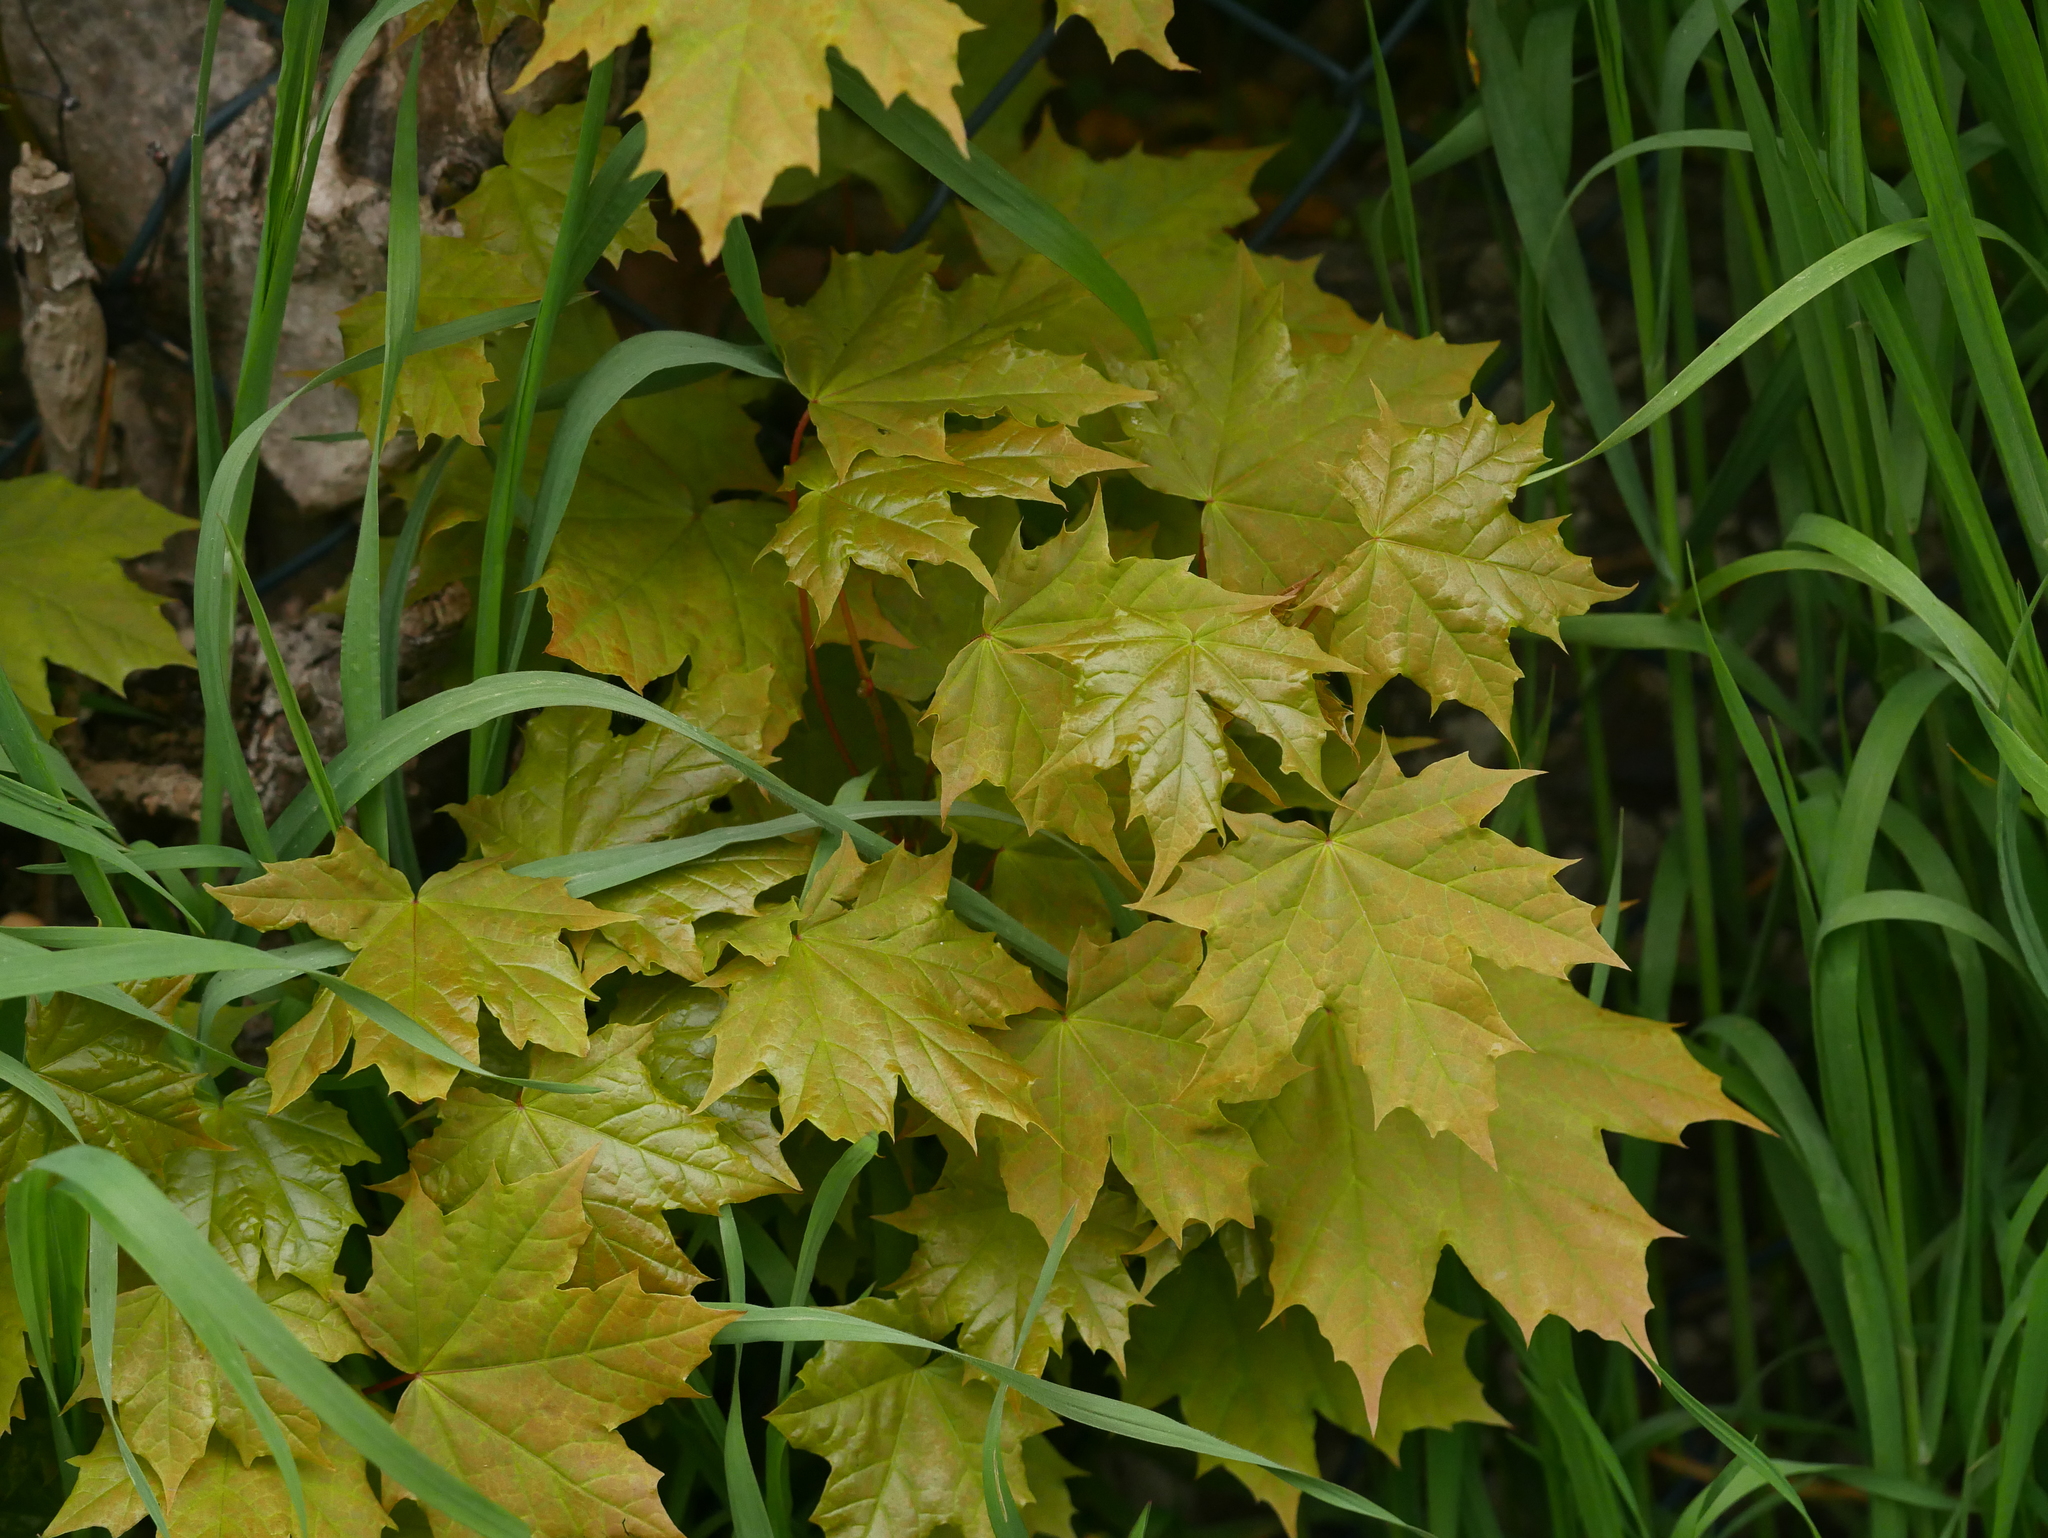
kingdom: Plantae
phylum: Tracheophyta
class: Magnoliopsida
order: Sapindales
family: Sapindaceae
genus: Acer
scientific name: Acer platanoides
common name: Norway maple
